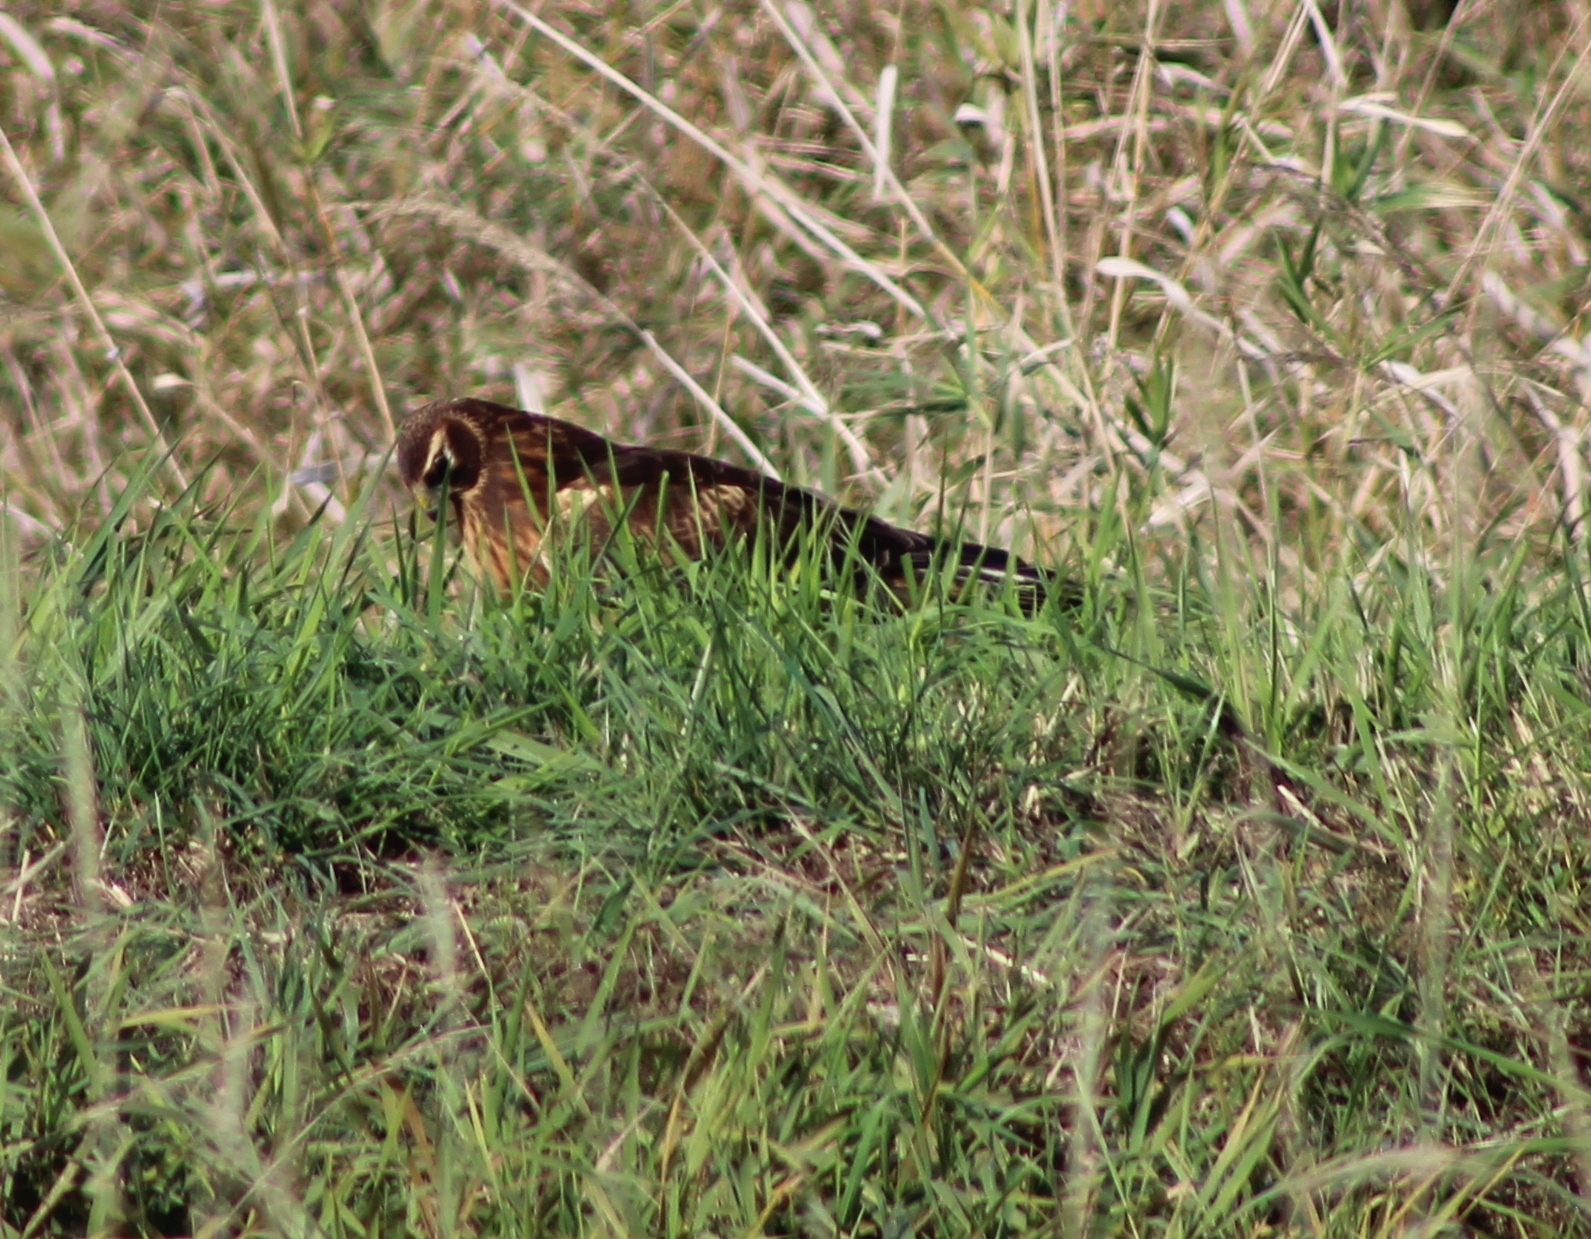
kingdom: Animalia
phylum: Chordata
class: Aves
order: Accipitriformes
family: Accipitridae
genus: Circus
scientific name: Circus cyaneus
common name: Hen harrier
